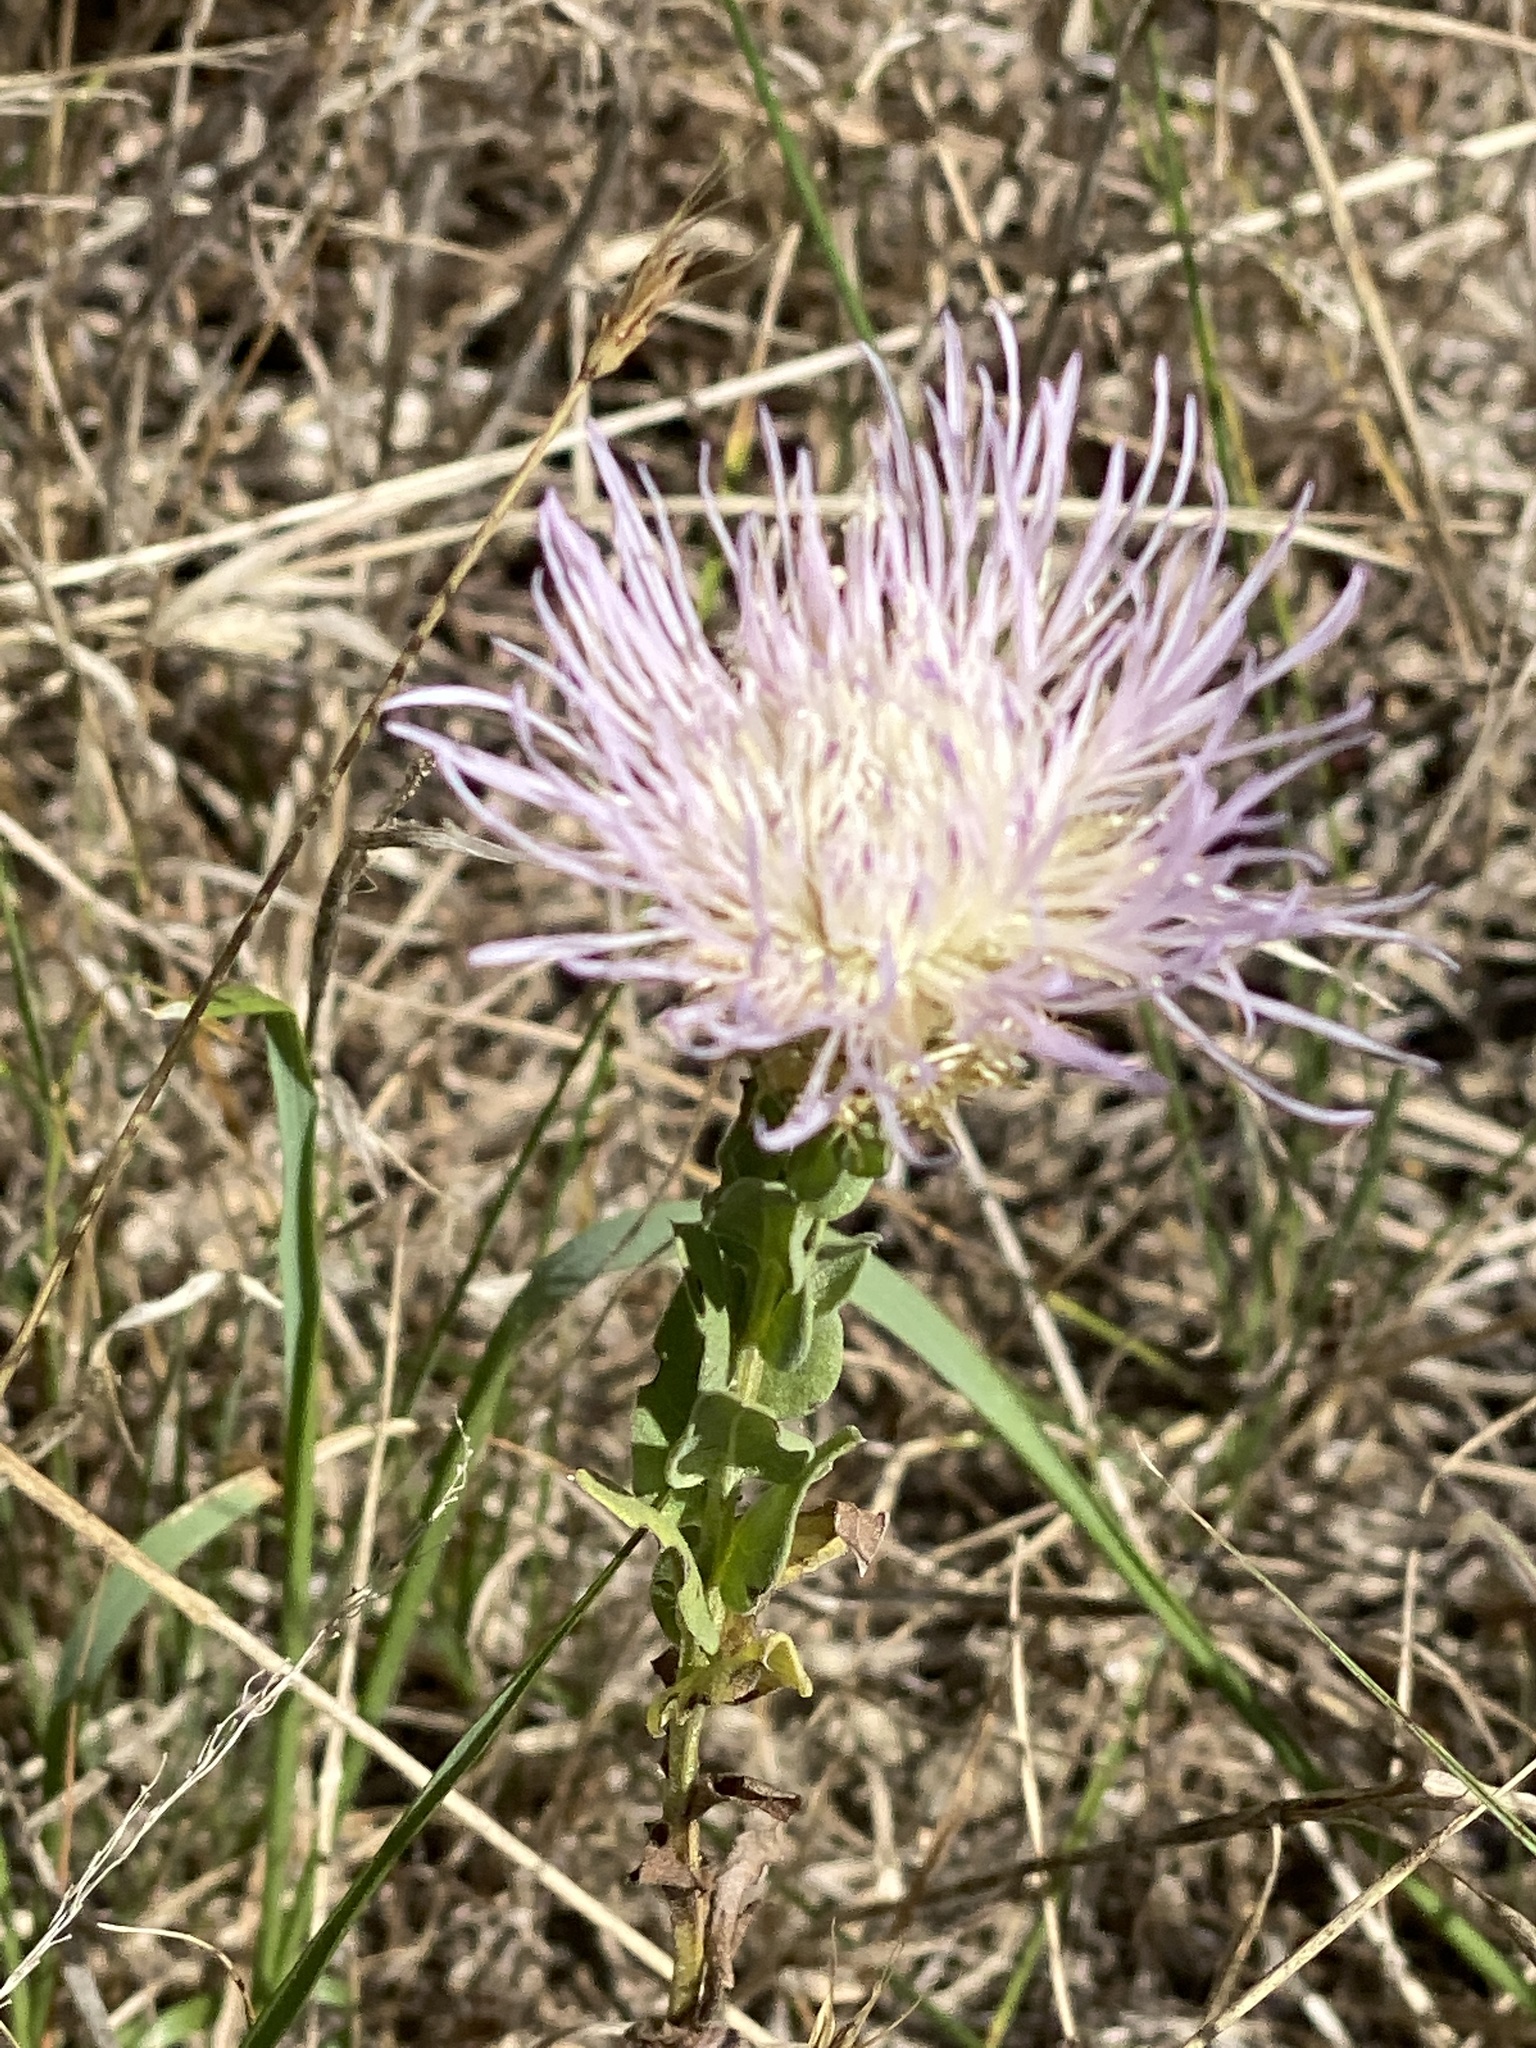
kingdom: Plantae
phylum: Tracheophyta
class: Magnoliopsida
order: Asterales
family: Asteraceae
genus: Plectocephalus
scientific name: Plectocephalus americanus
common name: American basket-flower
